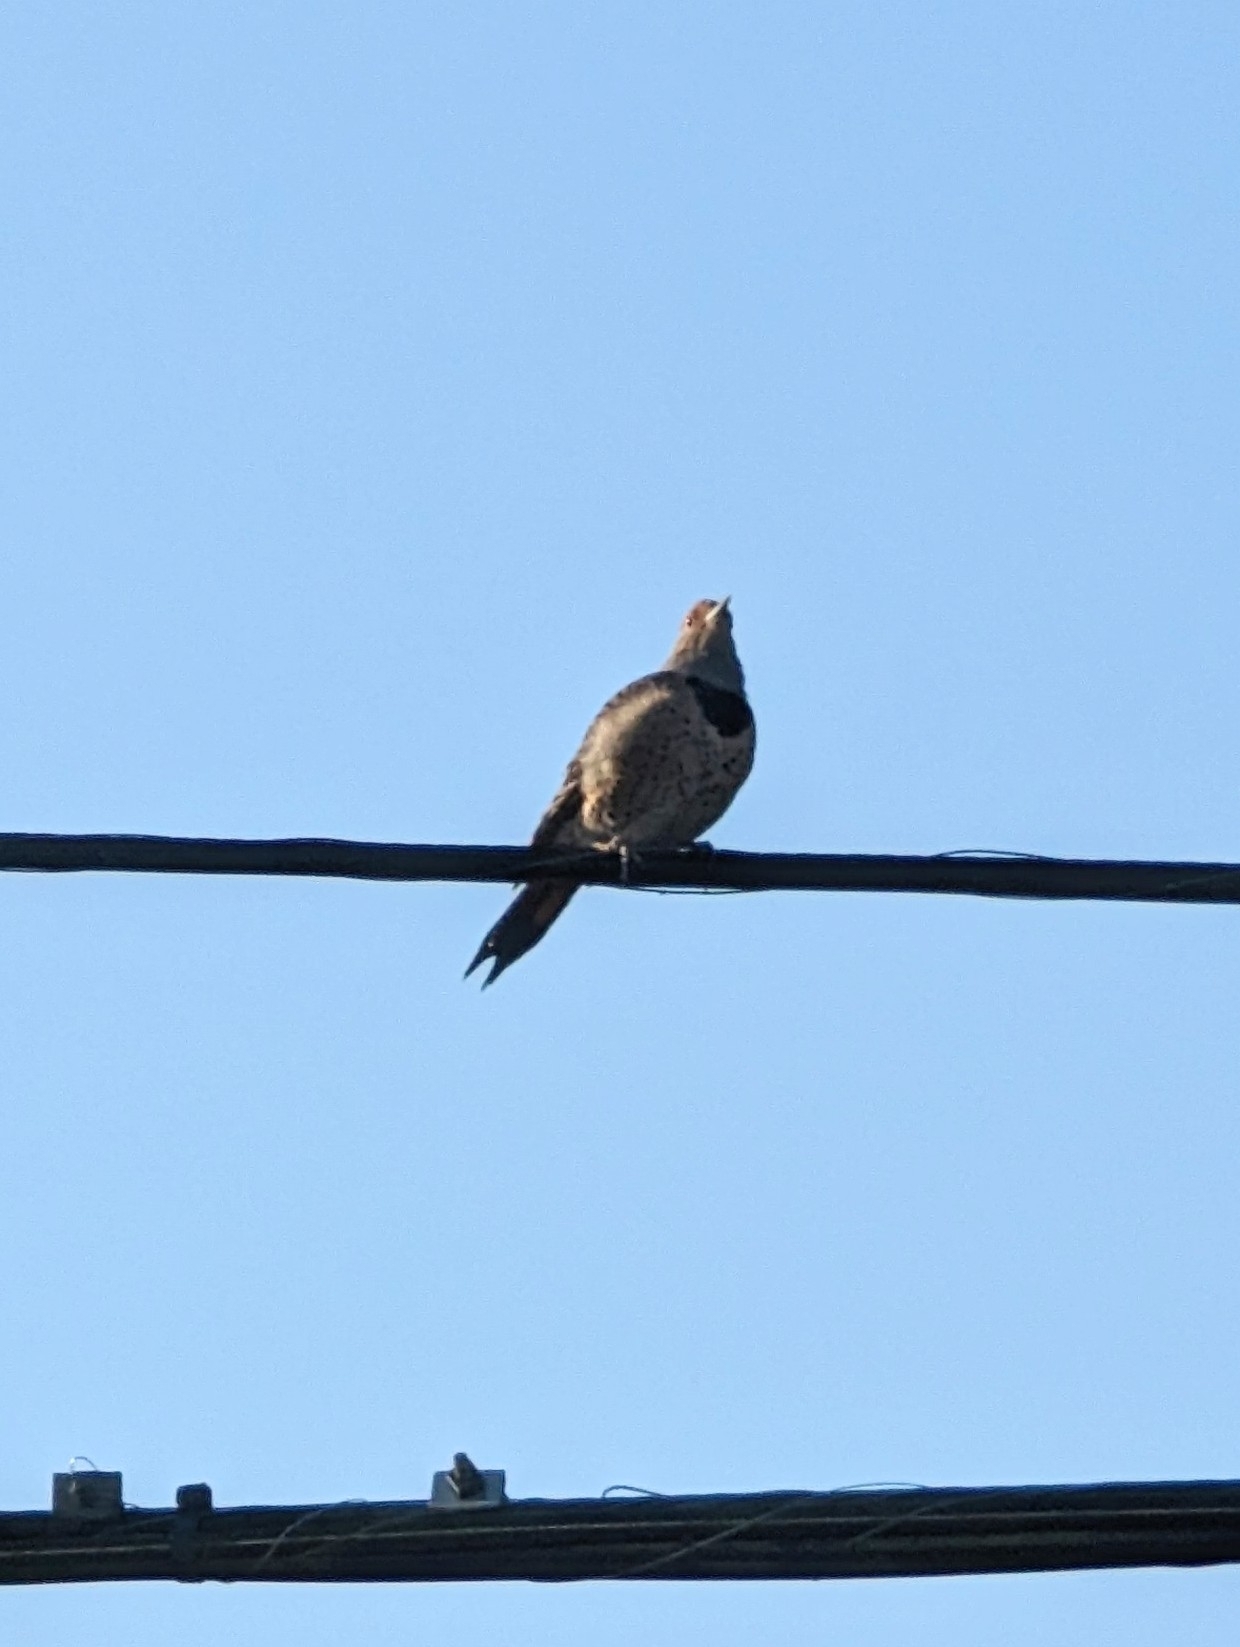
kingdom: Animalia
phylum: Chordata
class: Aves
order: Piciformes
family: Picidae
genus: Colaptes
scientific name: Colaptes auratus
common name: Northern flicker
